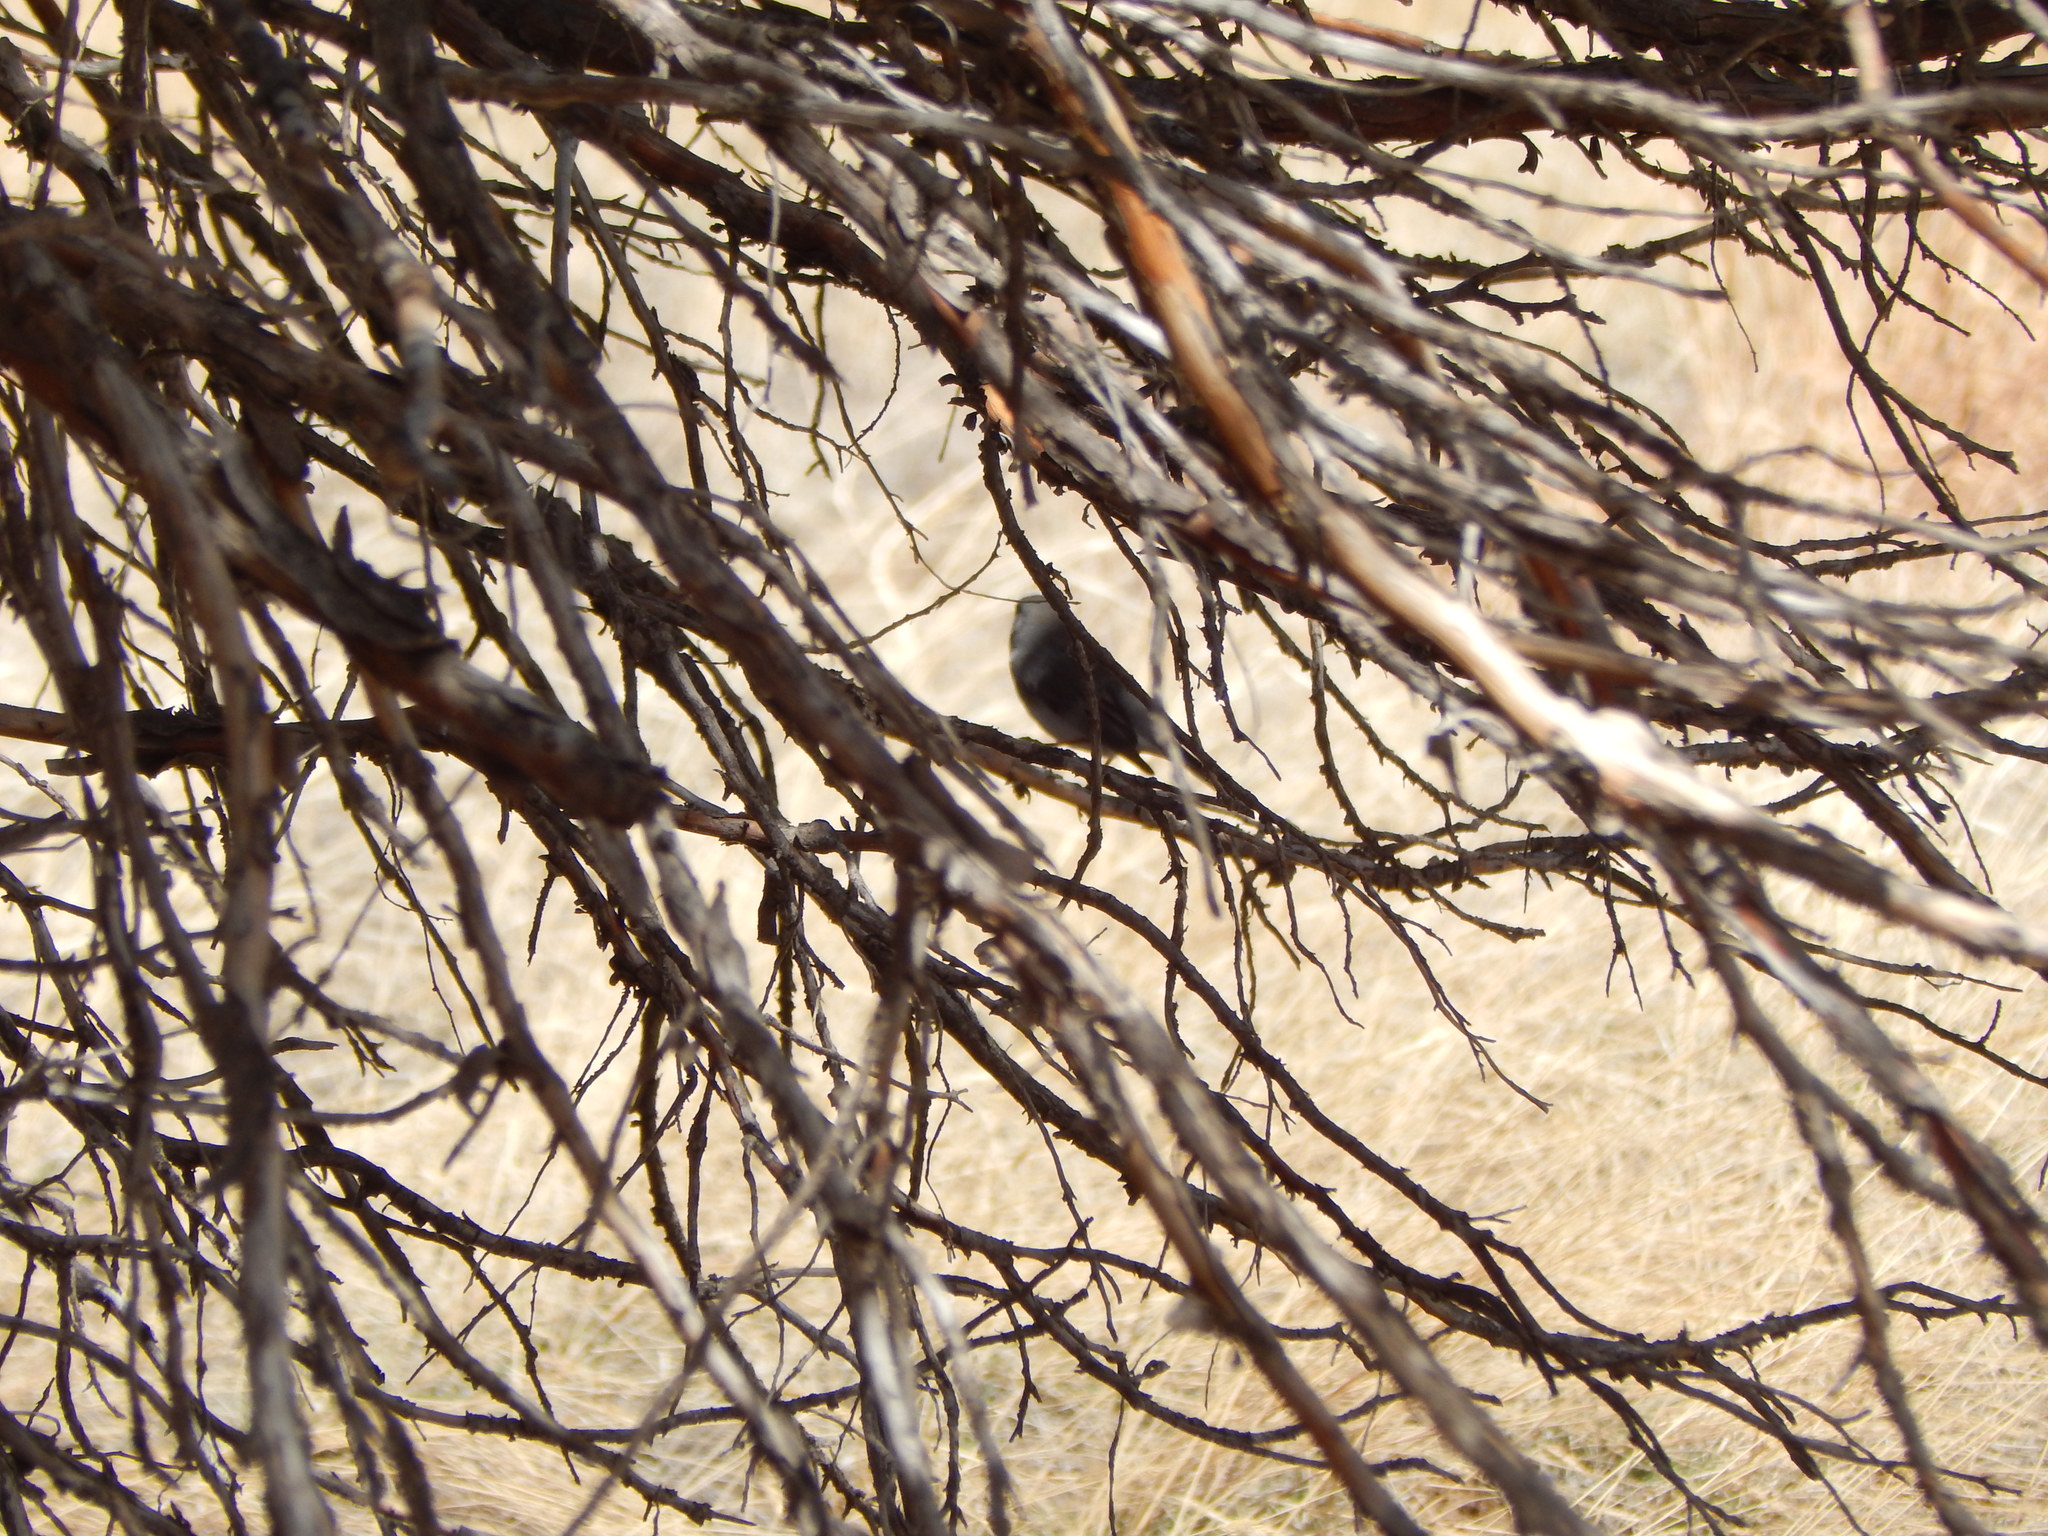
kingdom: Animalia
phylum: Chordata
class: Aves
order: Passeriformes
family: Passerellidae
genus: Junco
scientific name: Junco hyemalis
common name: Dark-eyed junco
